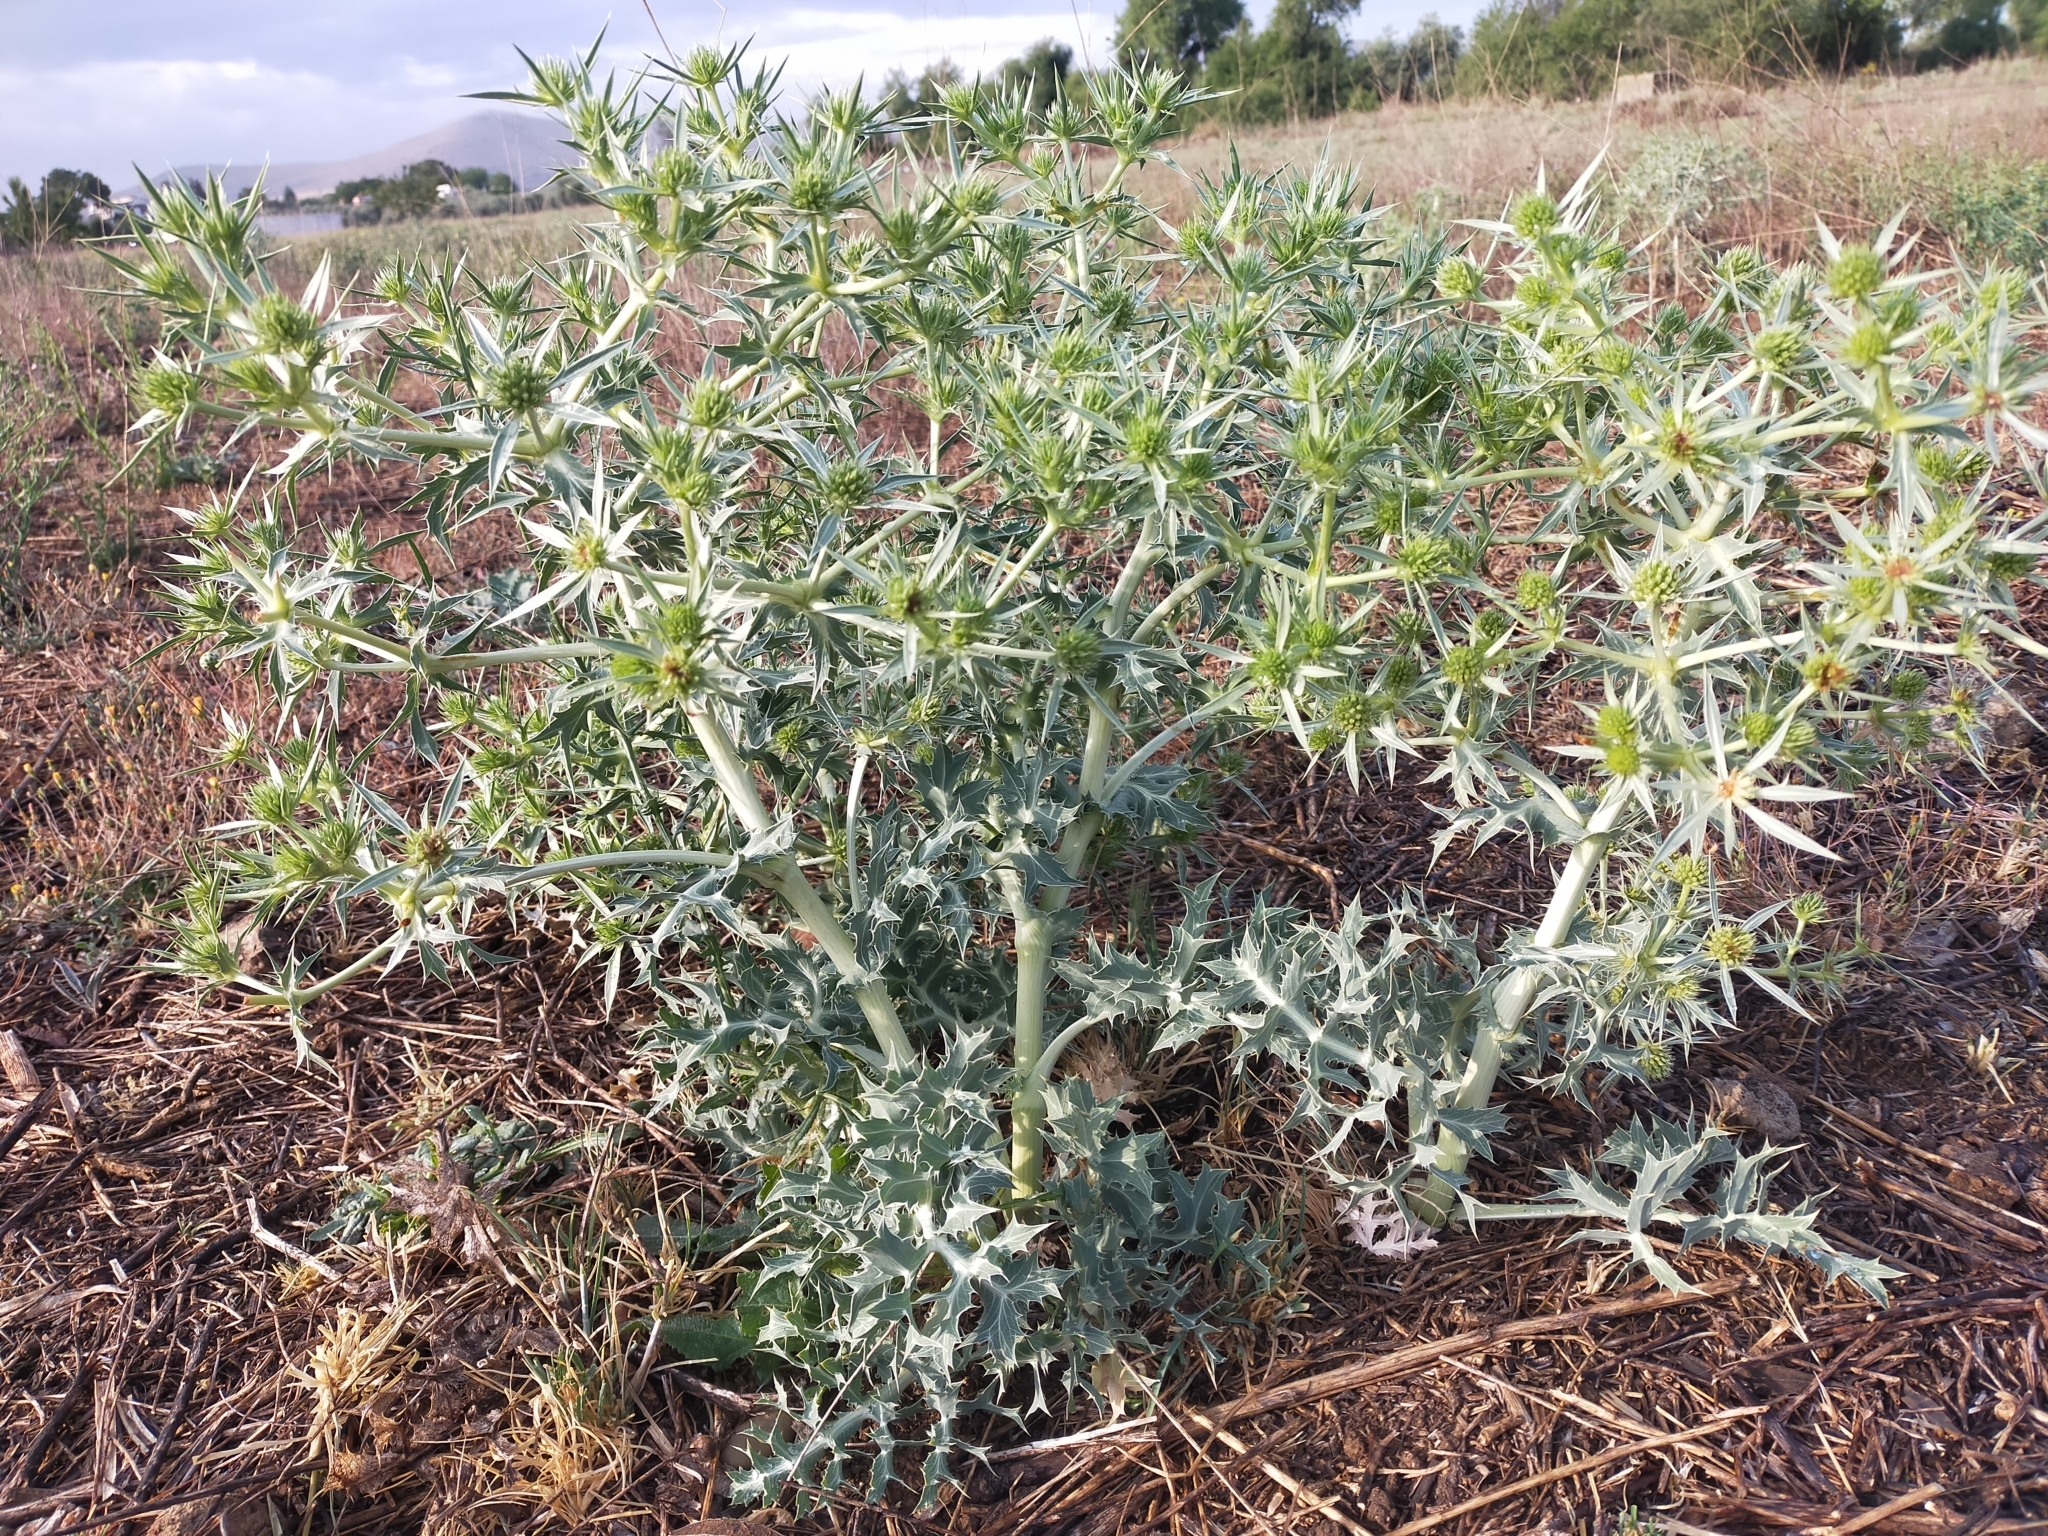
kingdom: Plantae
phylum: Tracheophyta
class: Magnoliopsida
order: Apiales
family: Apiaceae
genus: Eryngium
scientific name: Eryngium campestre
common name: Field eryngo
